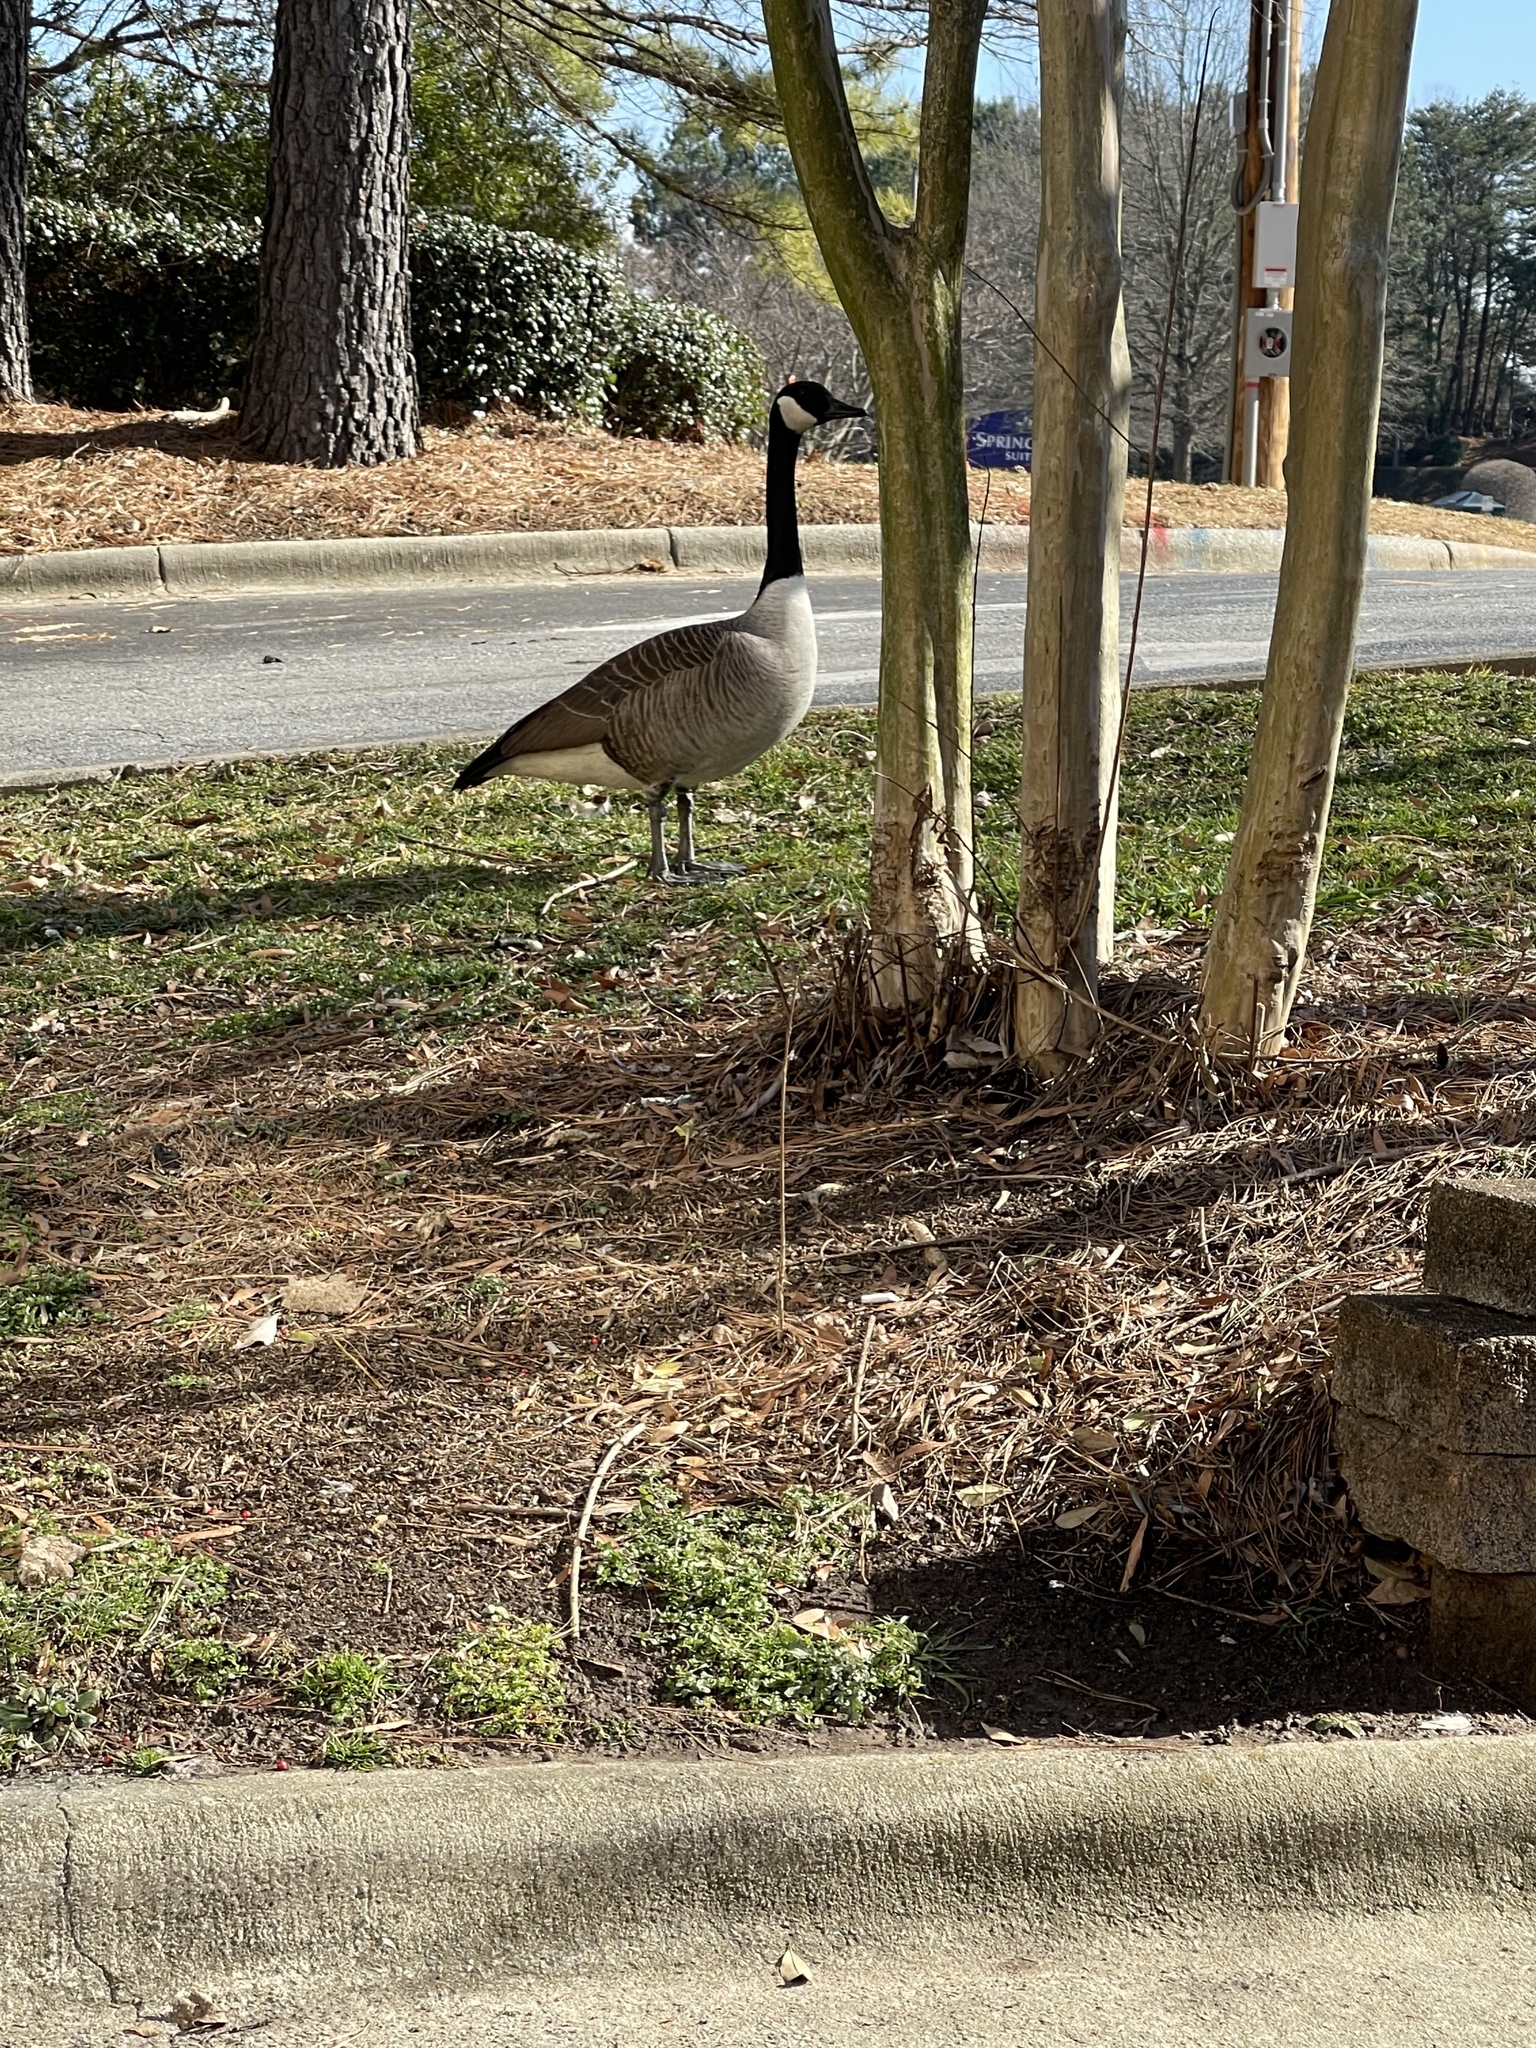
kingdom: Animalia
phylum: Chordata
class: Aves
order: Anseriformes
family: Anatidae
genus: Branta
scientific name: Branta canadensis
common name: Canada goose
